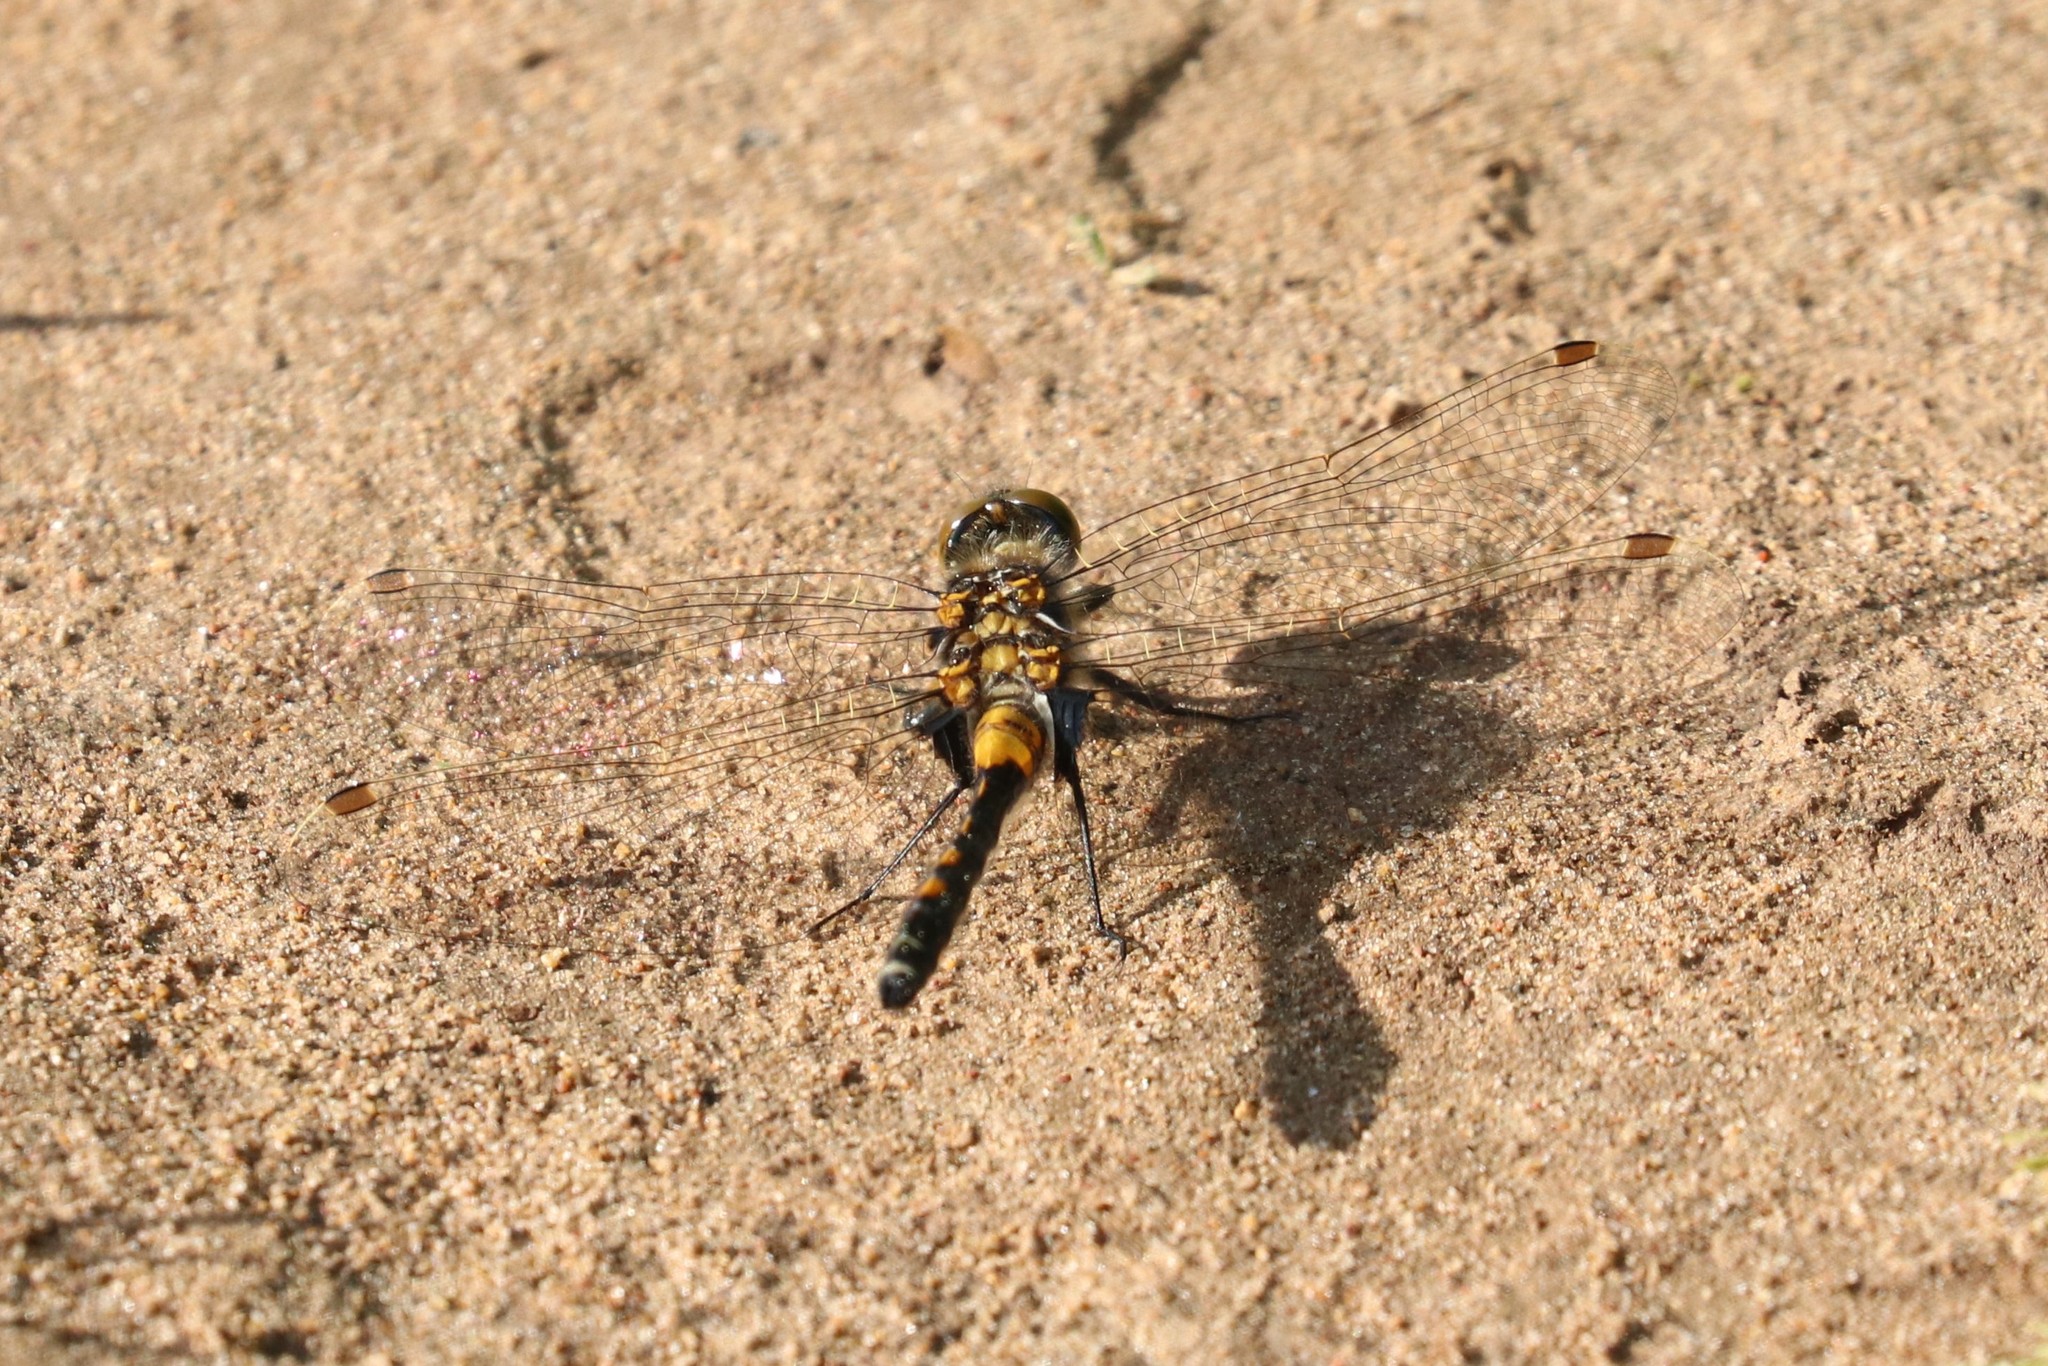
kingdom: Animalia
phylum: Arthropoda
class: Insecta
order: Odonata
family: Libellulidae
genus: Leucorrhinia
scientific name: Leucorrhinia rubicunda
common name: Ruby whiteface
